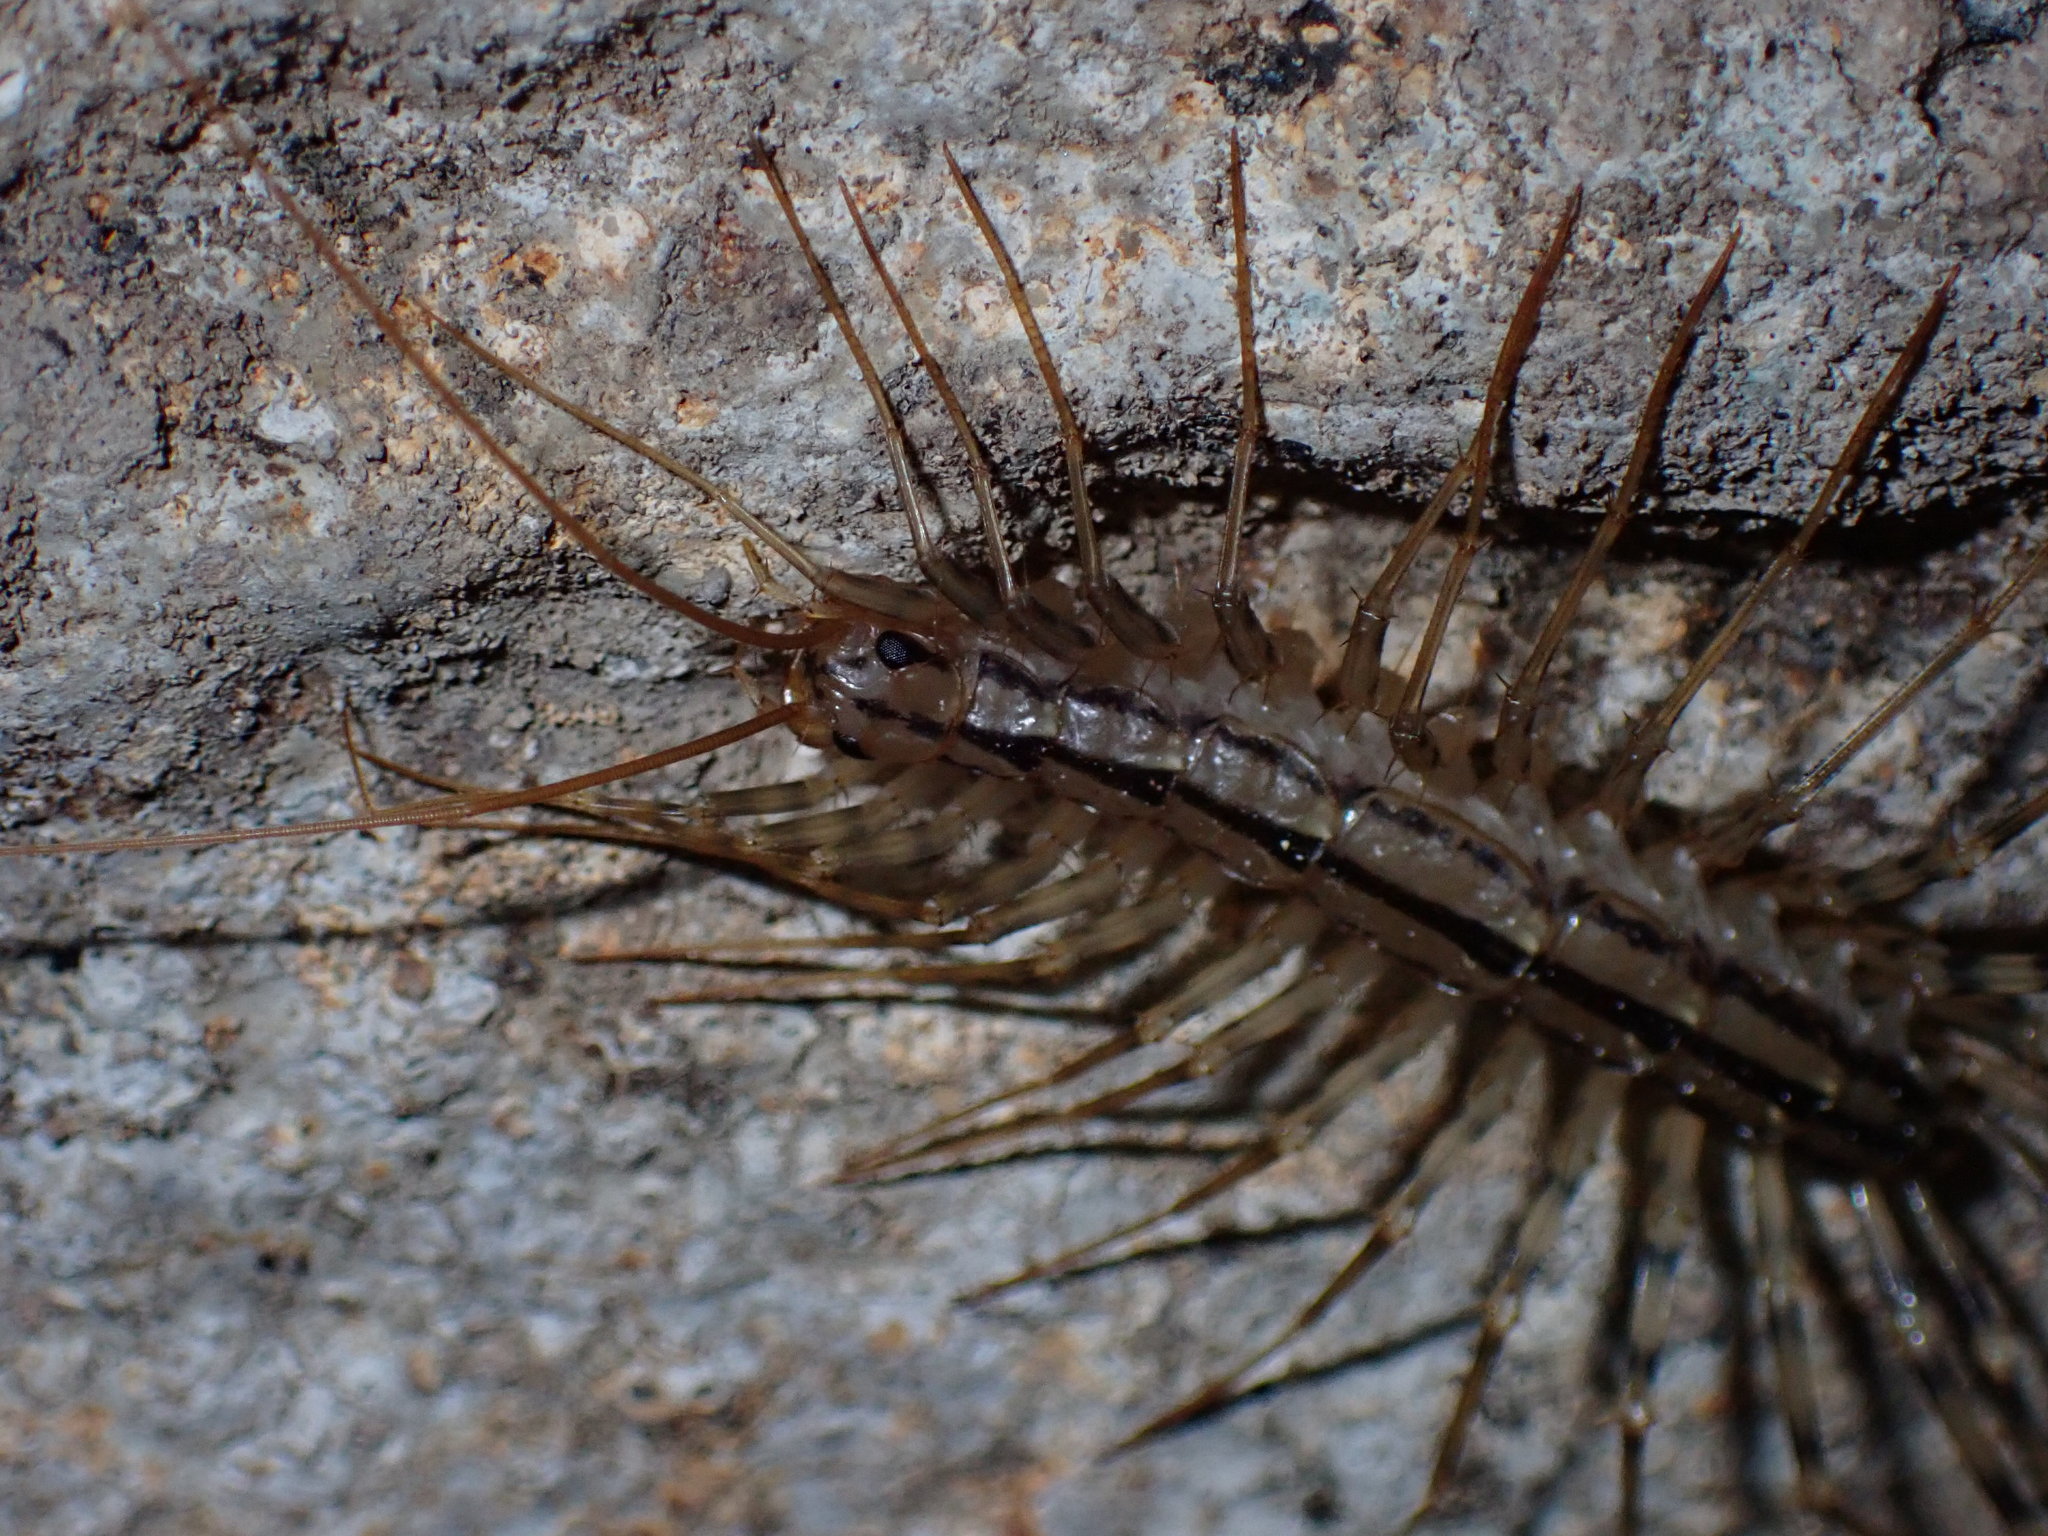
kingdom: Animalia
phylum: Arthropoda
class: Chilopoda
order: Scutigeromorpha
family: Scutigeridae
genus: Scutigera
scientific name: Scutigera coleoptrata
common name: House centipede
